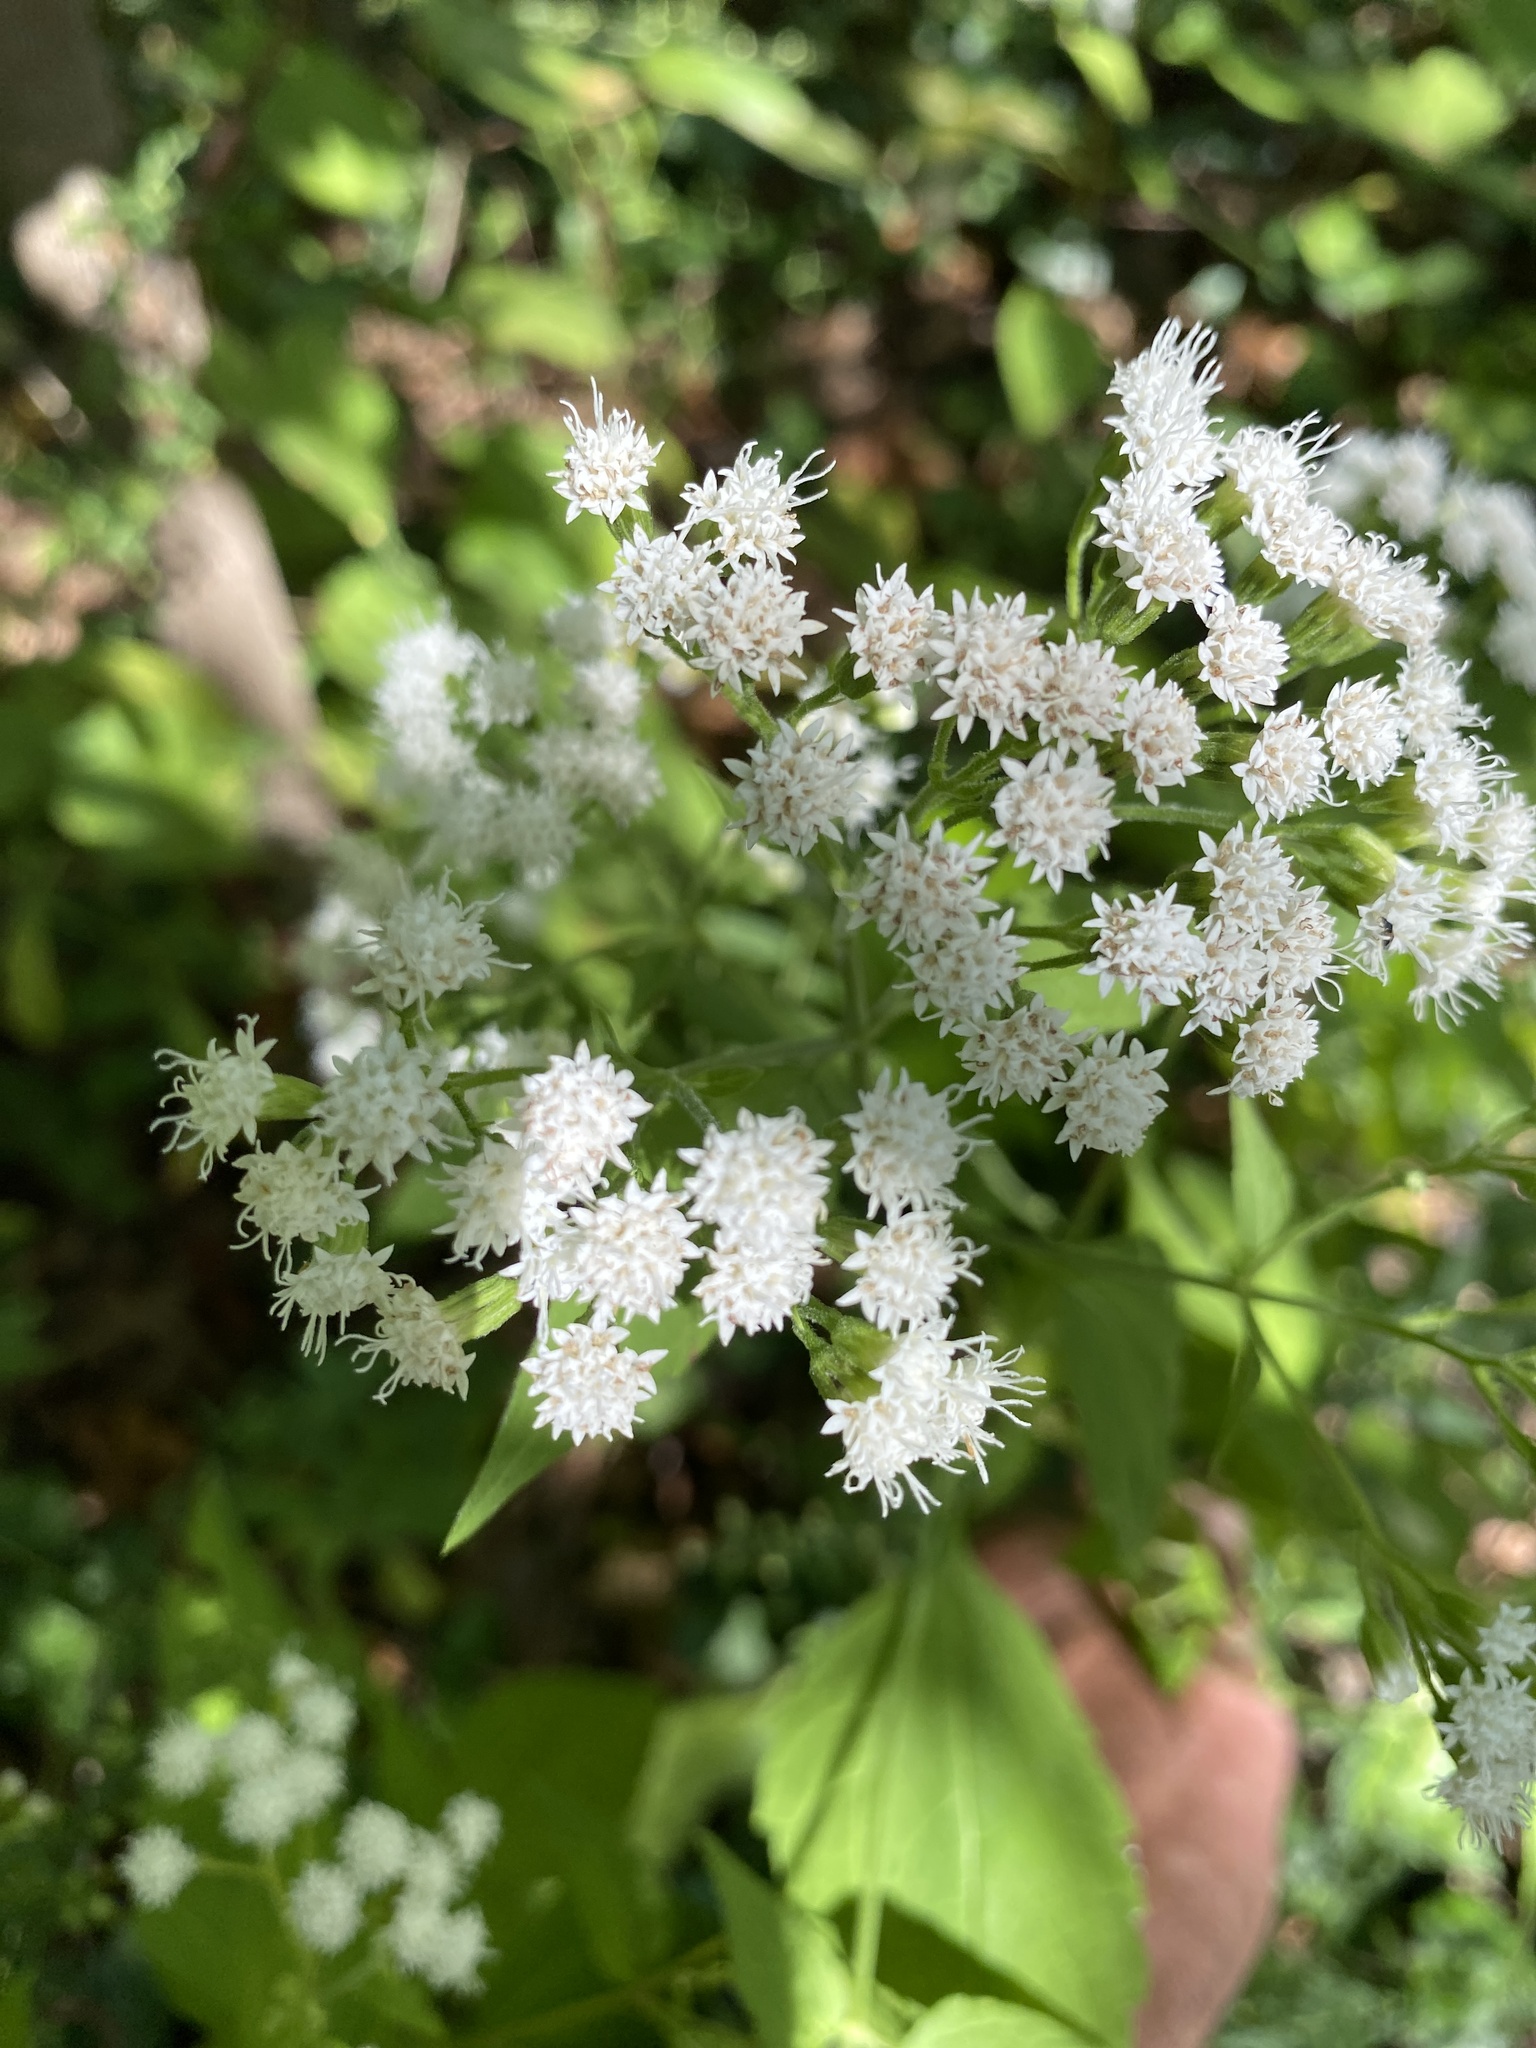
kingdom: Plantae
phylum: Tracheophyta
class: Magnoliopsida
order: Asterales
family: Asteraceae
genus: Ageratina
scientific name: Ageratina altissima
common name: White snakeroot
